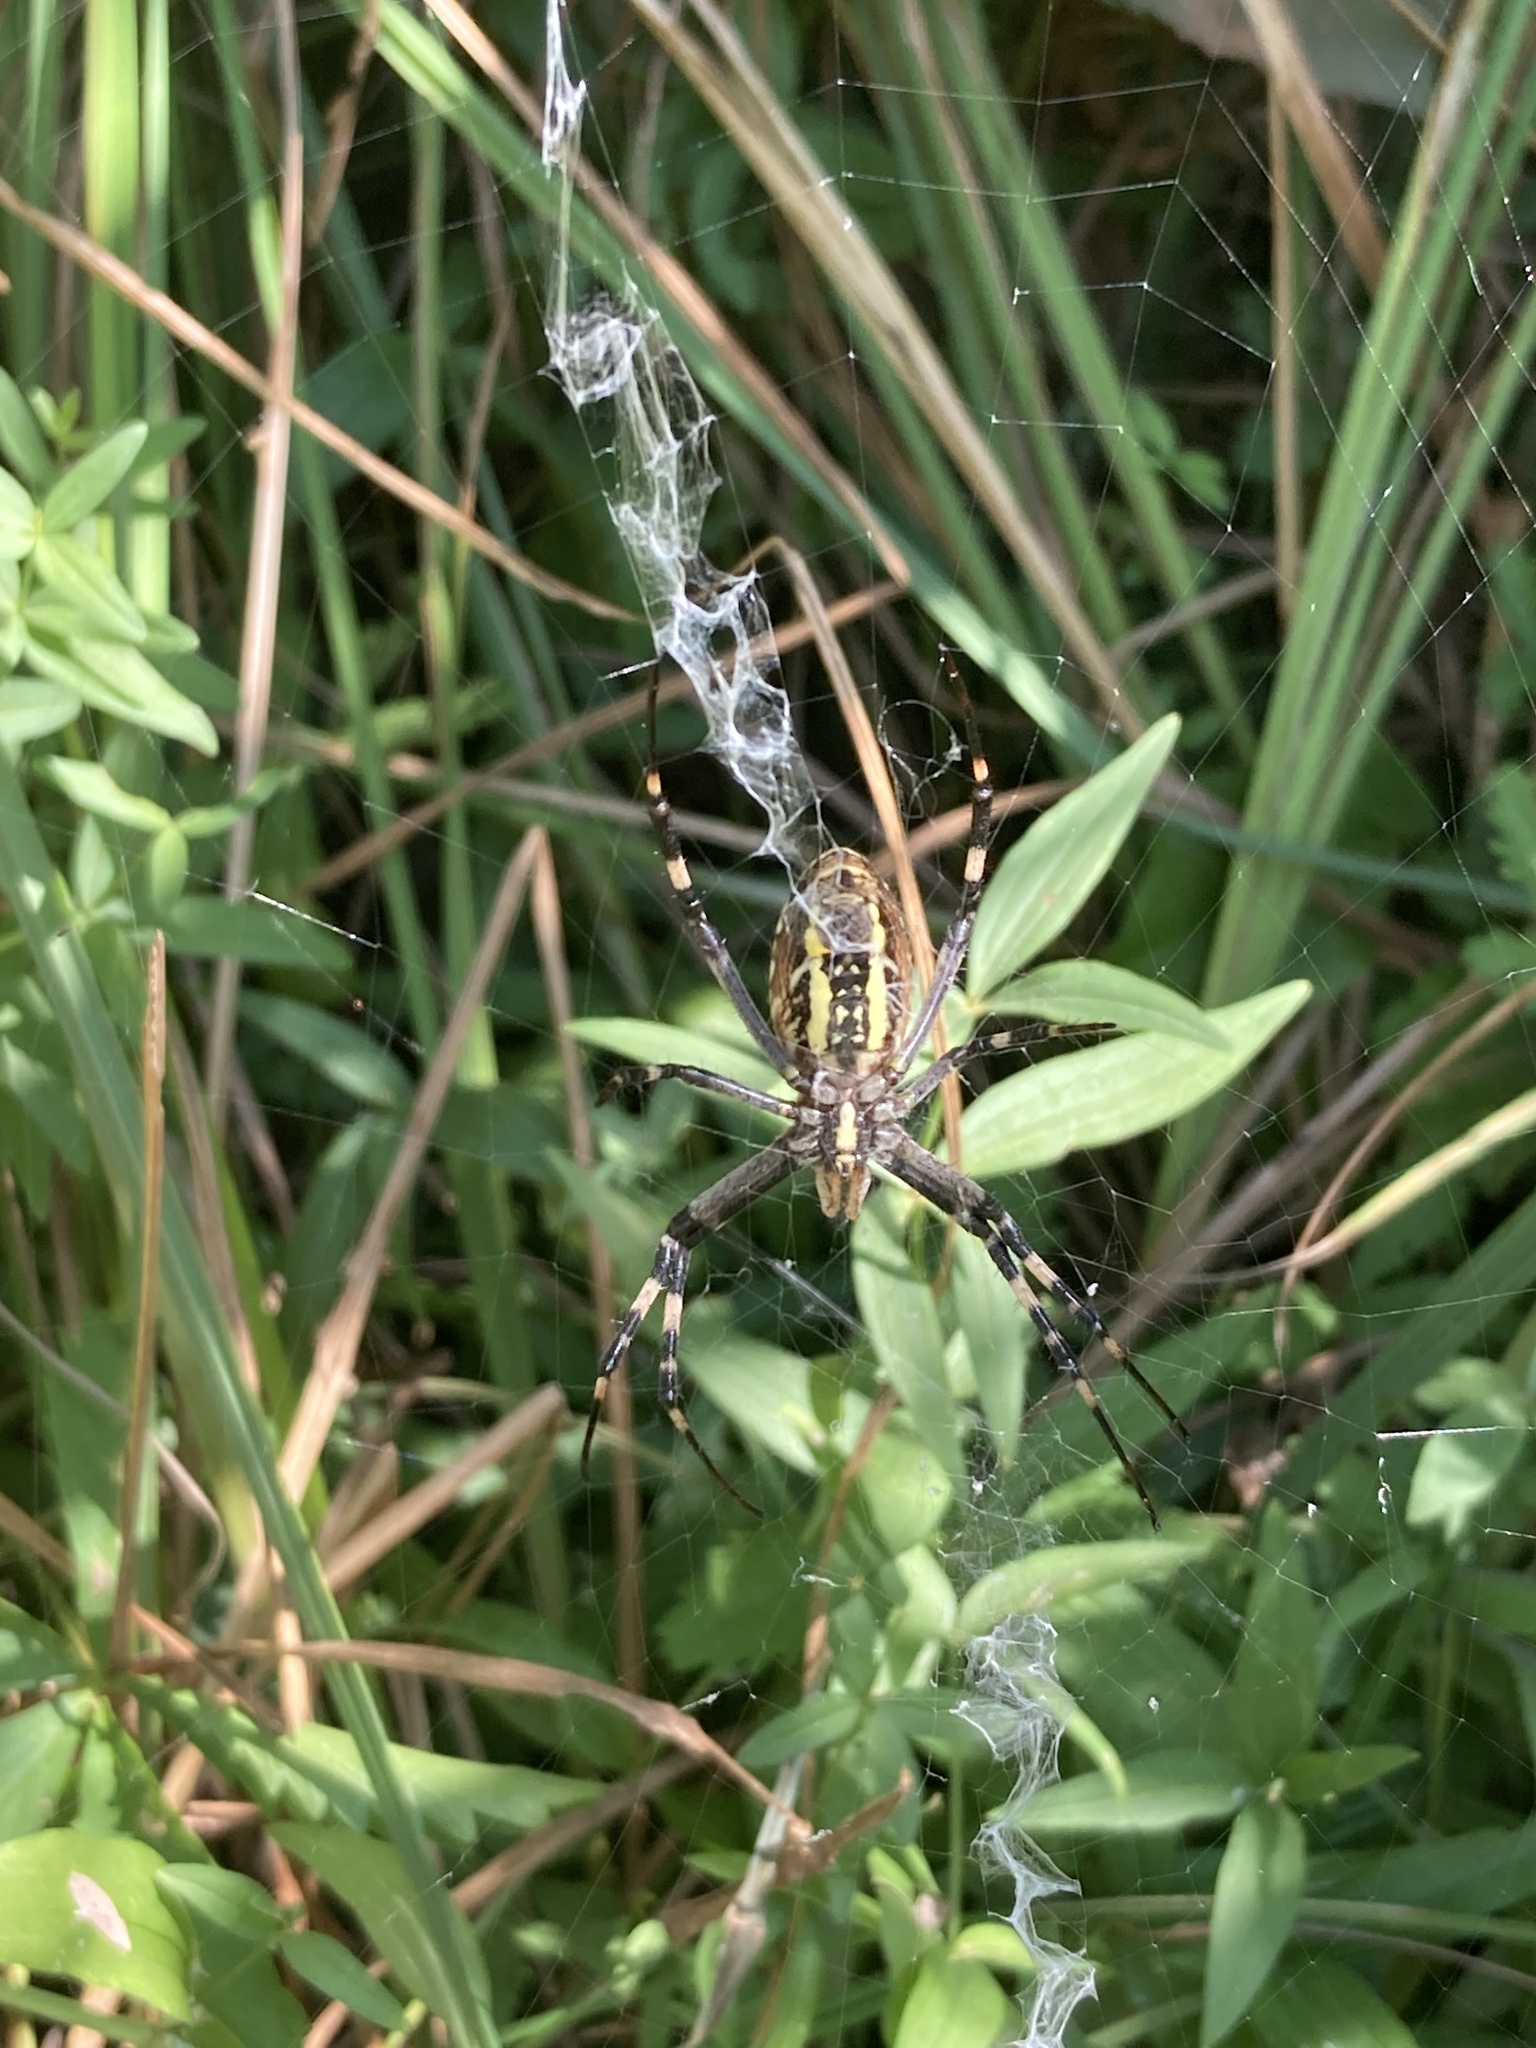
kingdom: Animalia
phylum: Arthropoda
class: Arachnida
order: Araneae
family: Araneidae
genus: Argiope
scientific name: Argiope bruennichi
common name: Wasp spider
